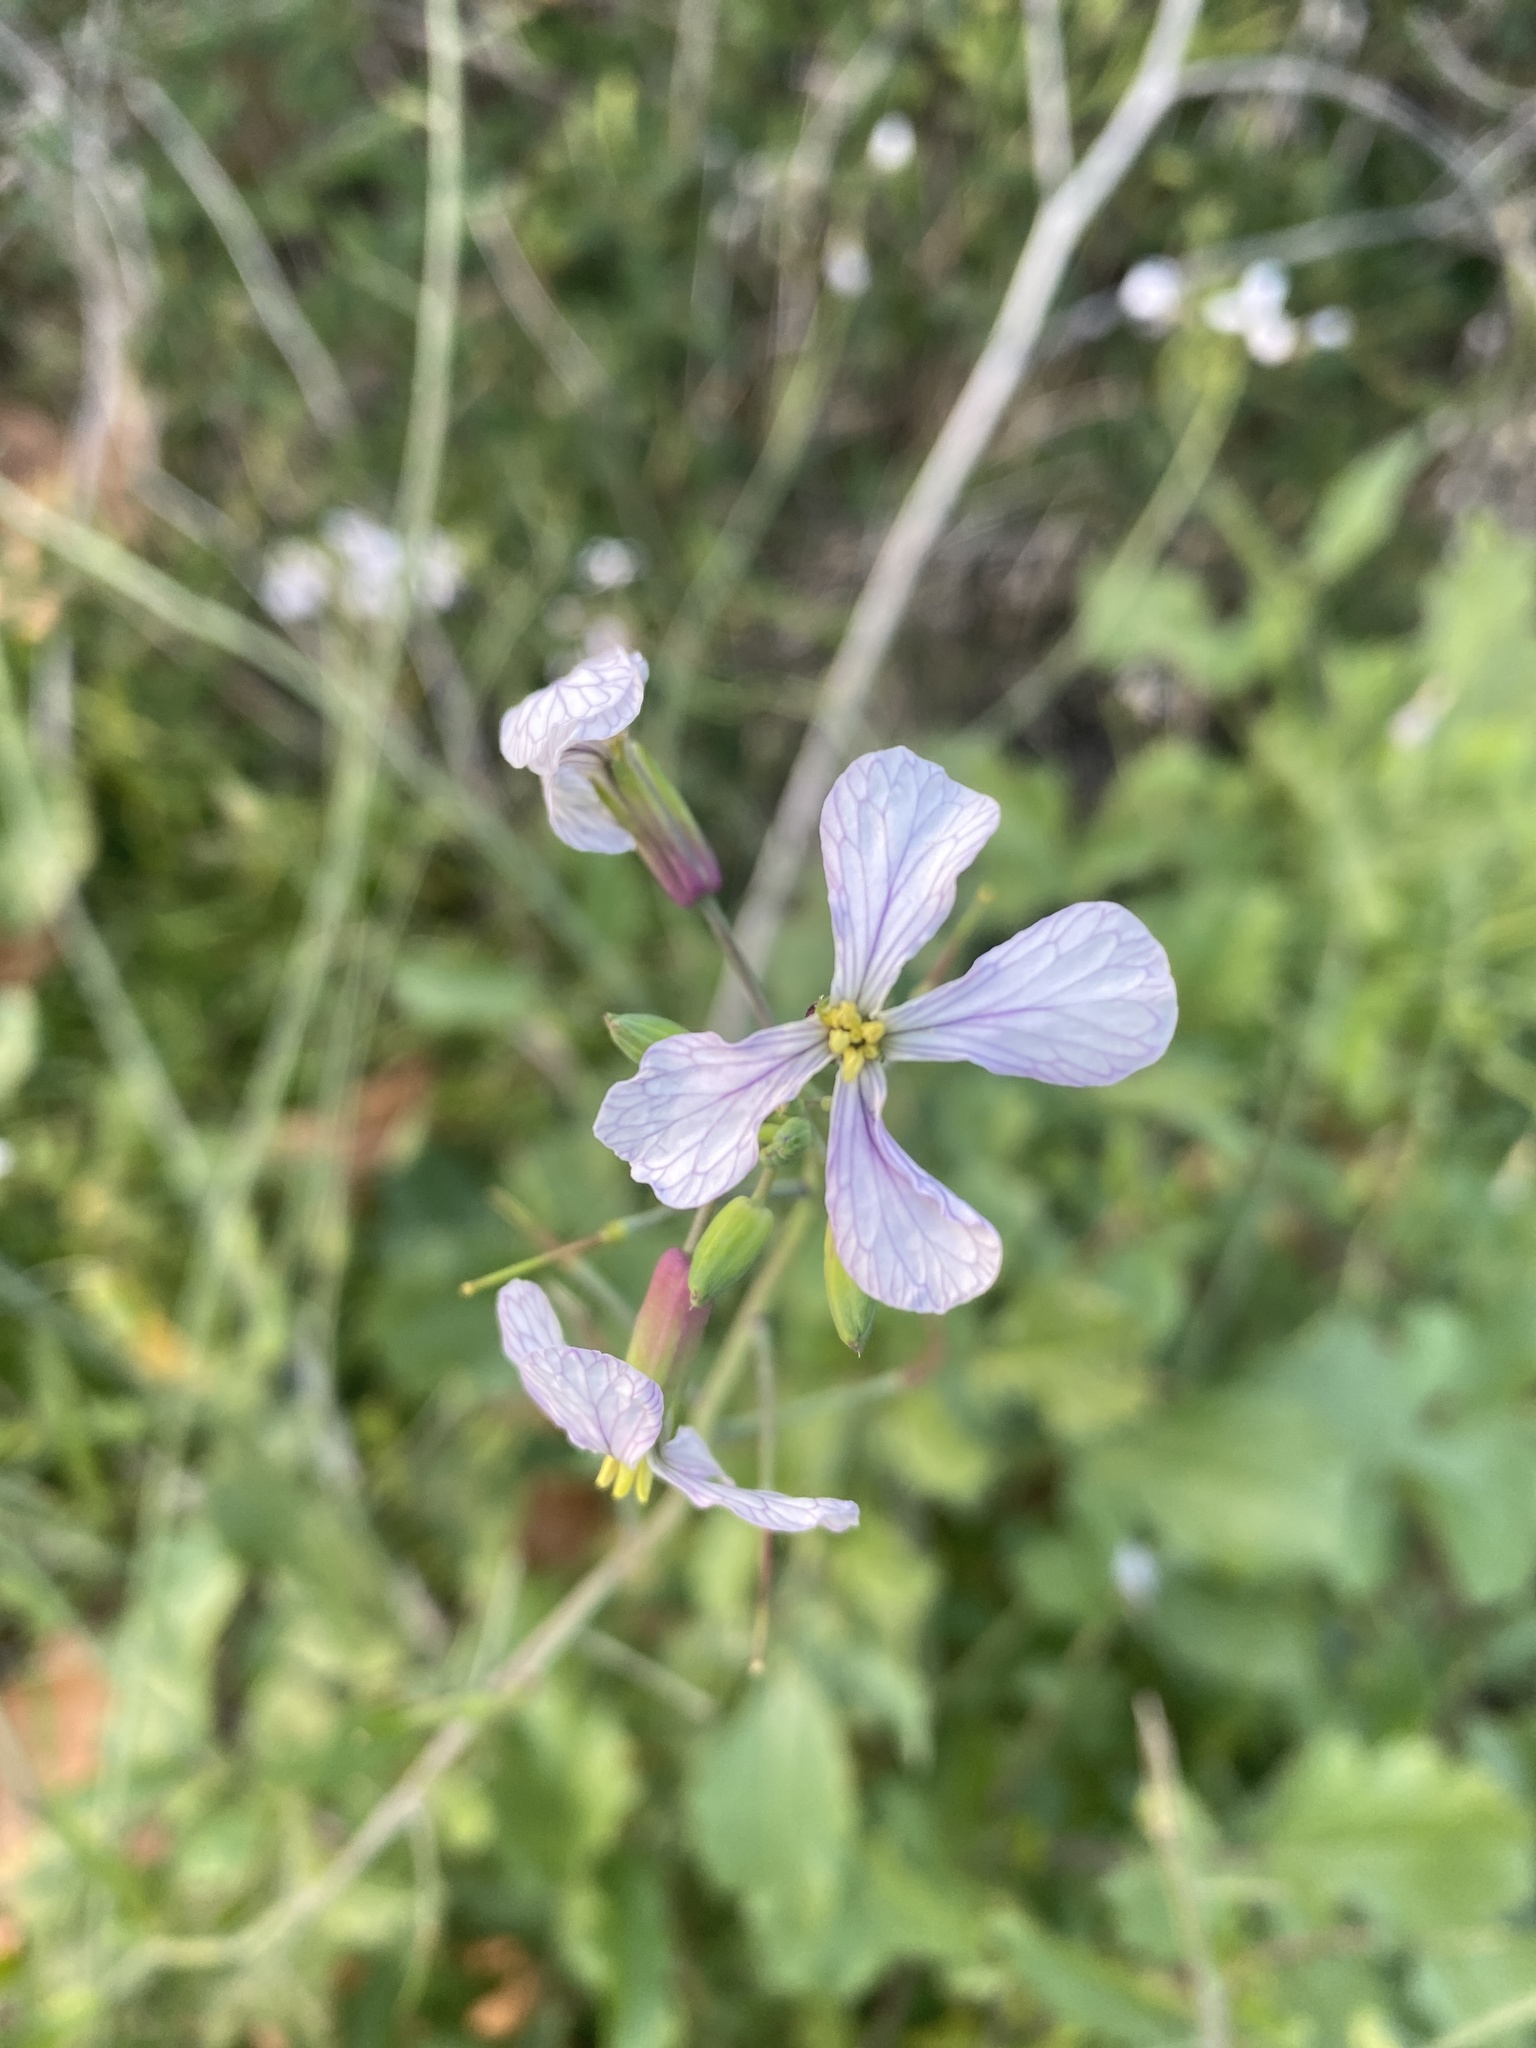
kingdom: Plantae
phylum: Tracheophyta
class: Magnoliopsida
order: Brassicales
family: Brassicaceae
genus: Raphanus
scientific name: Raphanus sativus
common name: Cultivated radish
